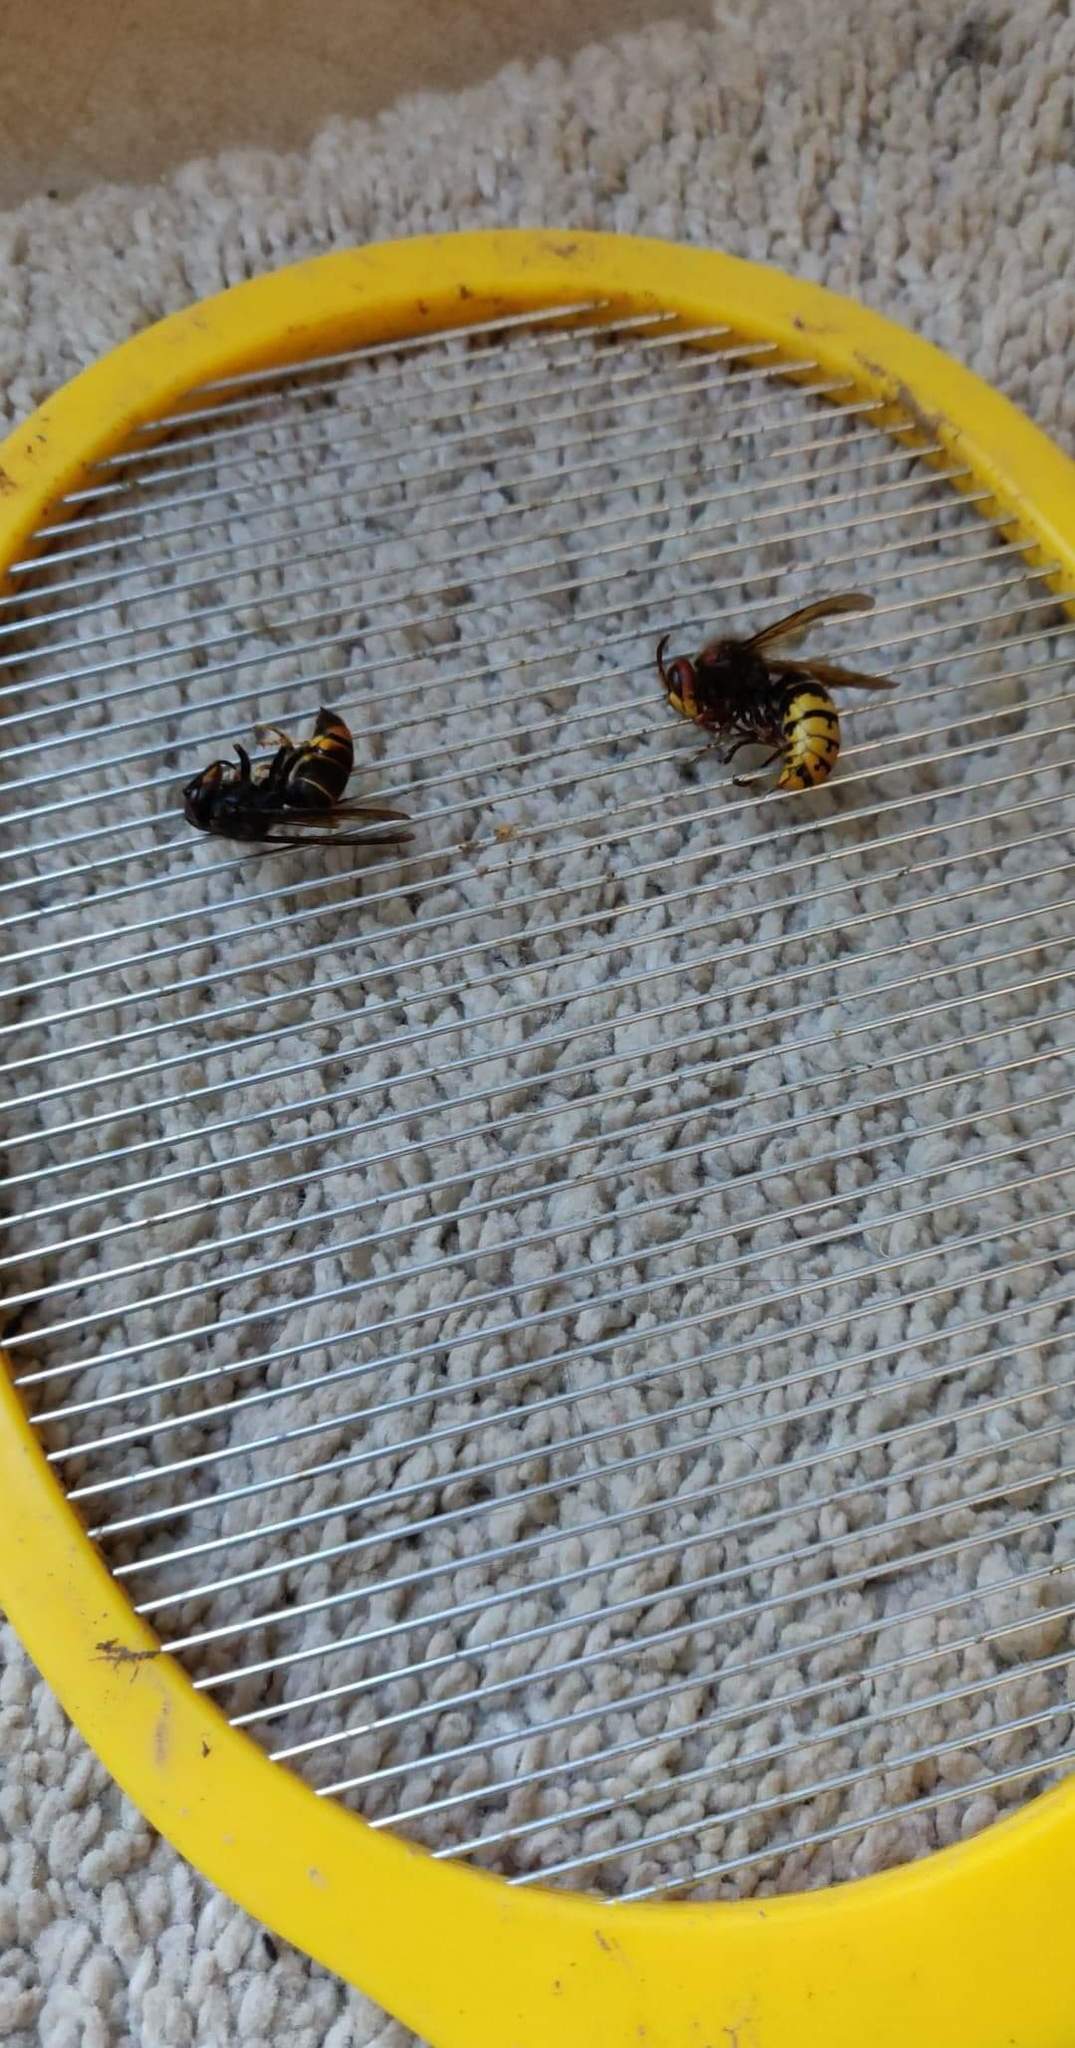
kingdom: Animalia
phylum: Arthropoda
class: Insecta
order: Hymenoptera
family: Vespidae
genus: Vespa
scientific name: Vespa velutina
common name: Asian hornet
